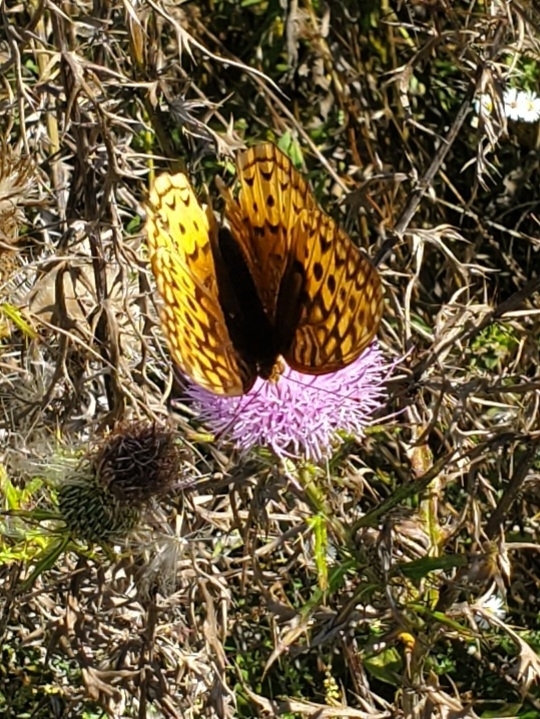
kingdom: Animalia
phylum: Arthropoda
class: Insecta
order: Lepidoptera
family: Nymphalidae
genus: Speyeria
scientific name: Speyeria cybele
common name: Great spangled fritillary
